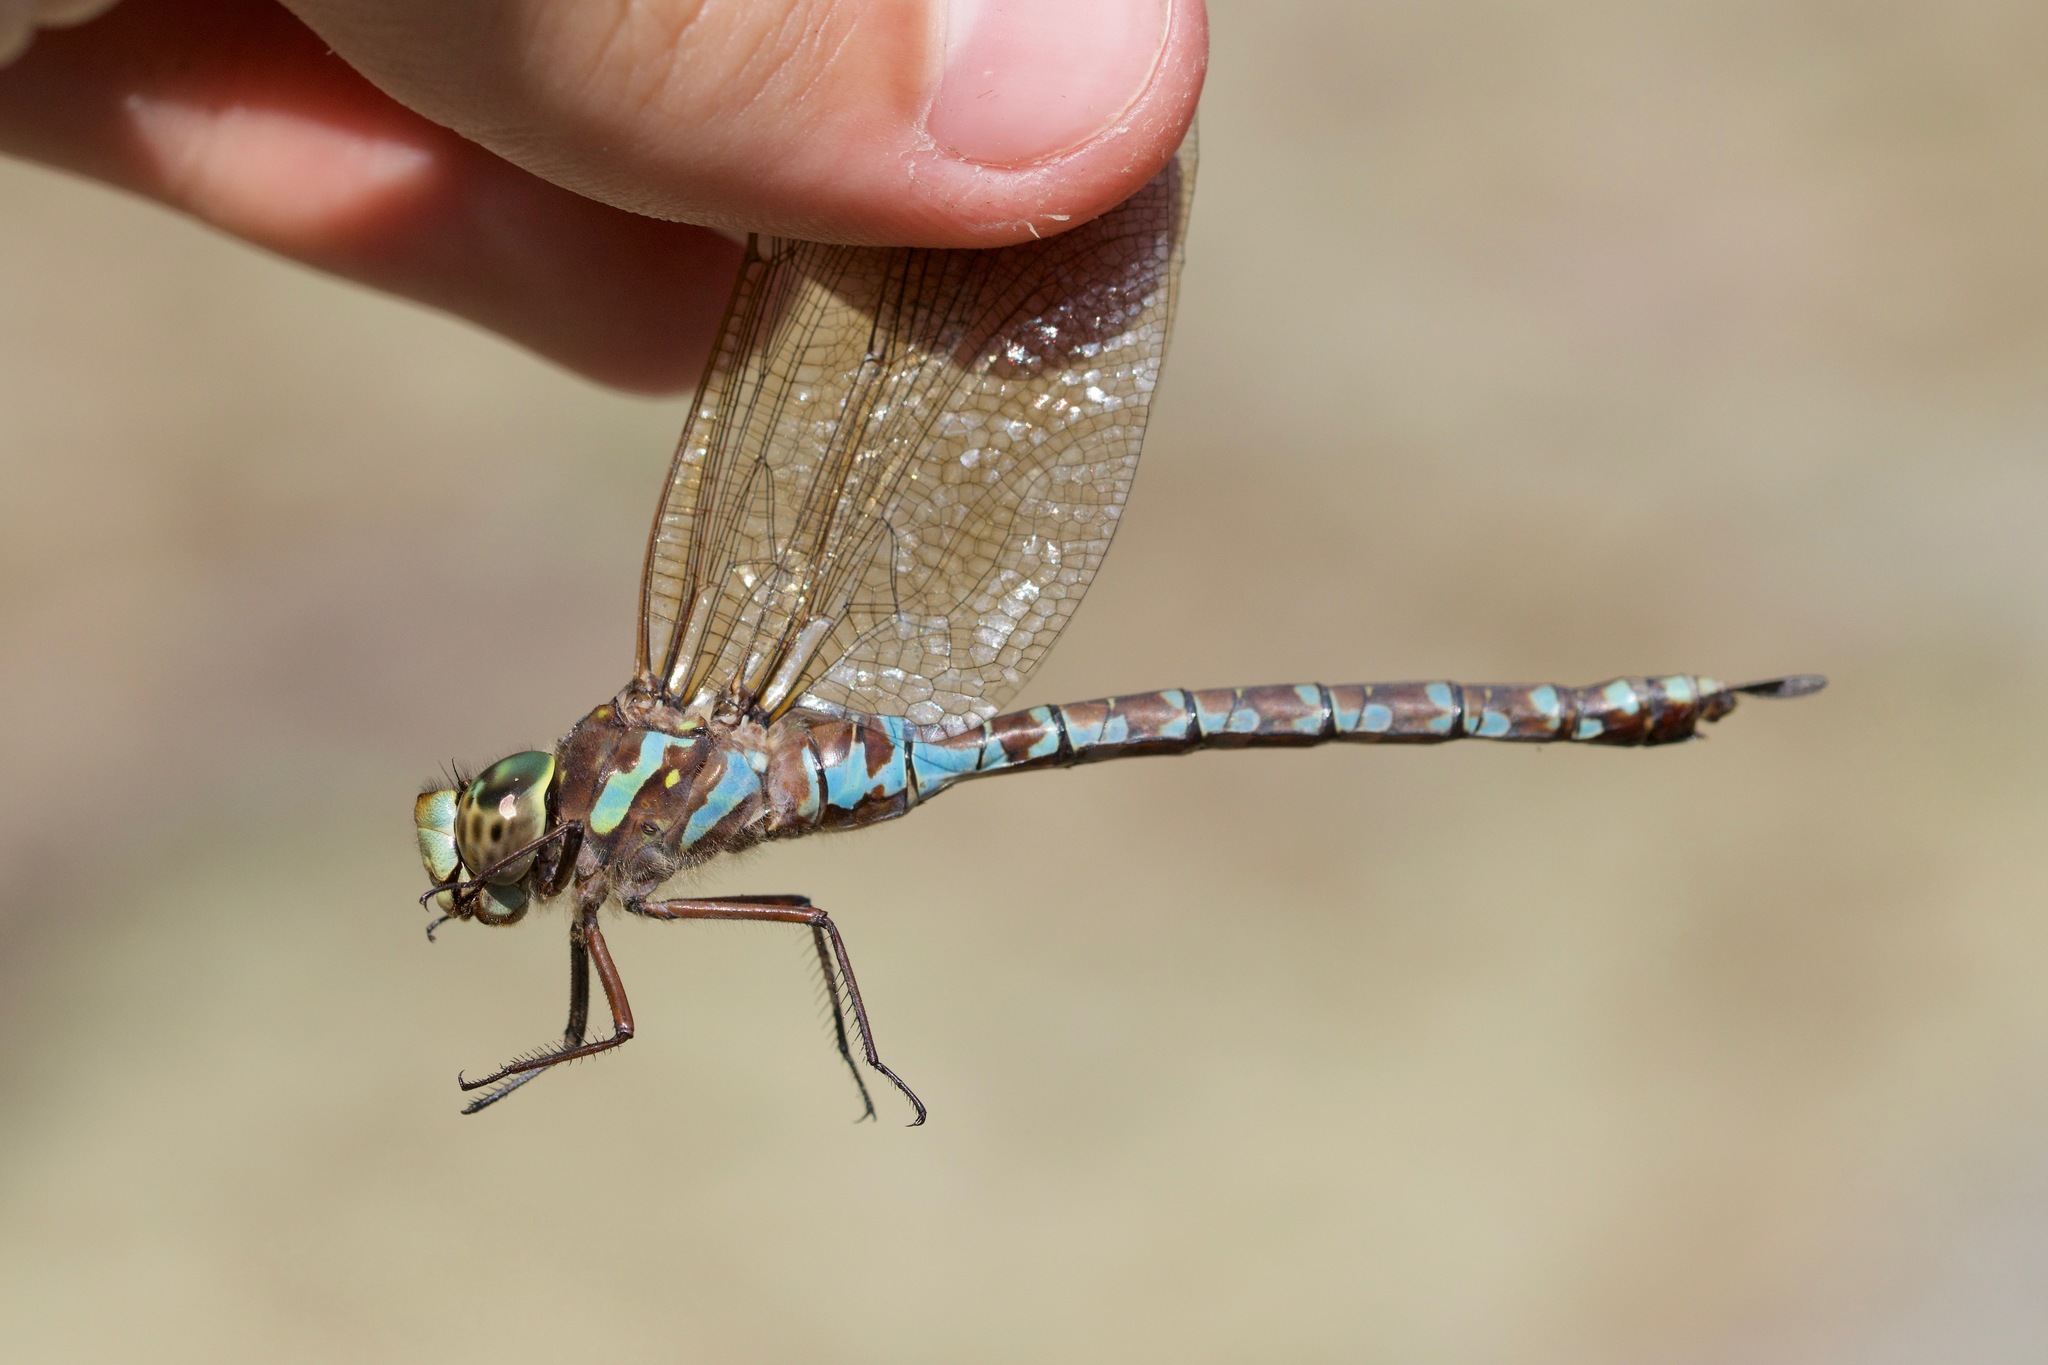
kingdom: Animalia
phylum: Arthropoda
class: Insecta
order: Odonata
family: Aeshnidae
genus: Aeshna
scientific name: Aeshna canadensis
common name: Canada darner
